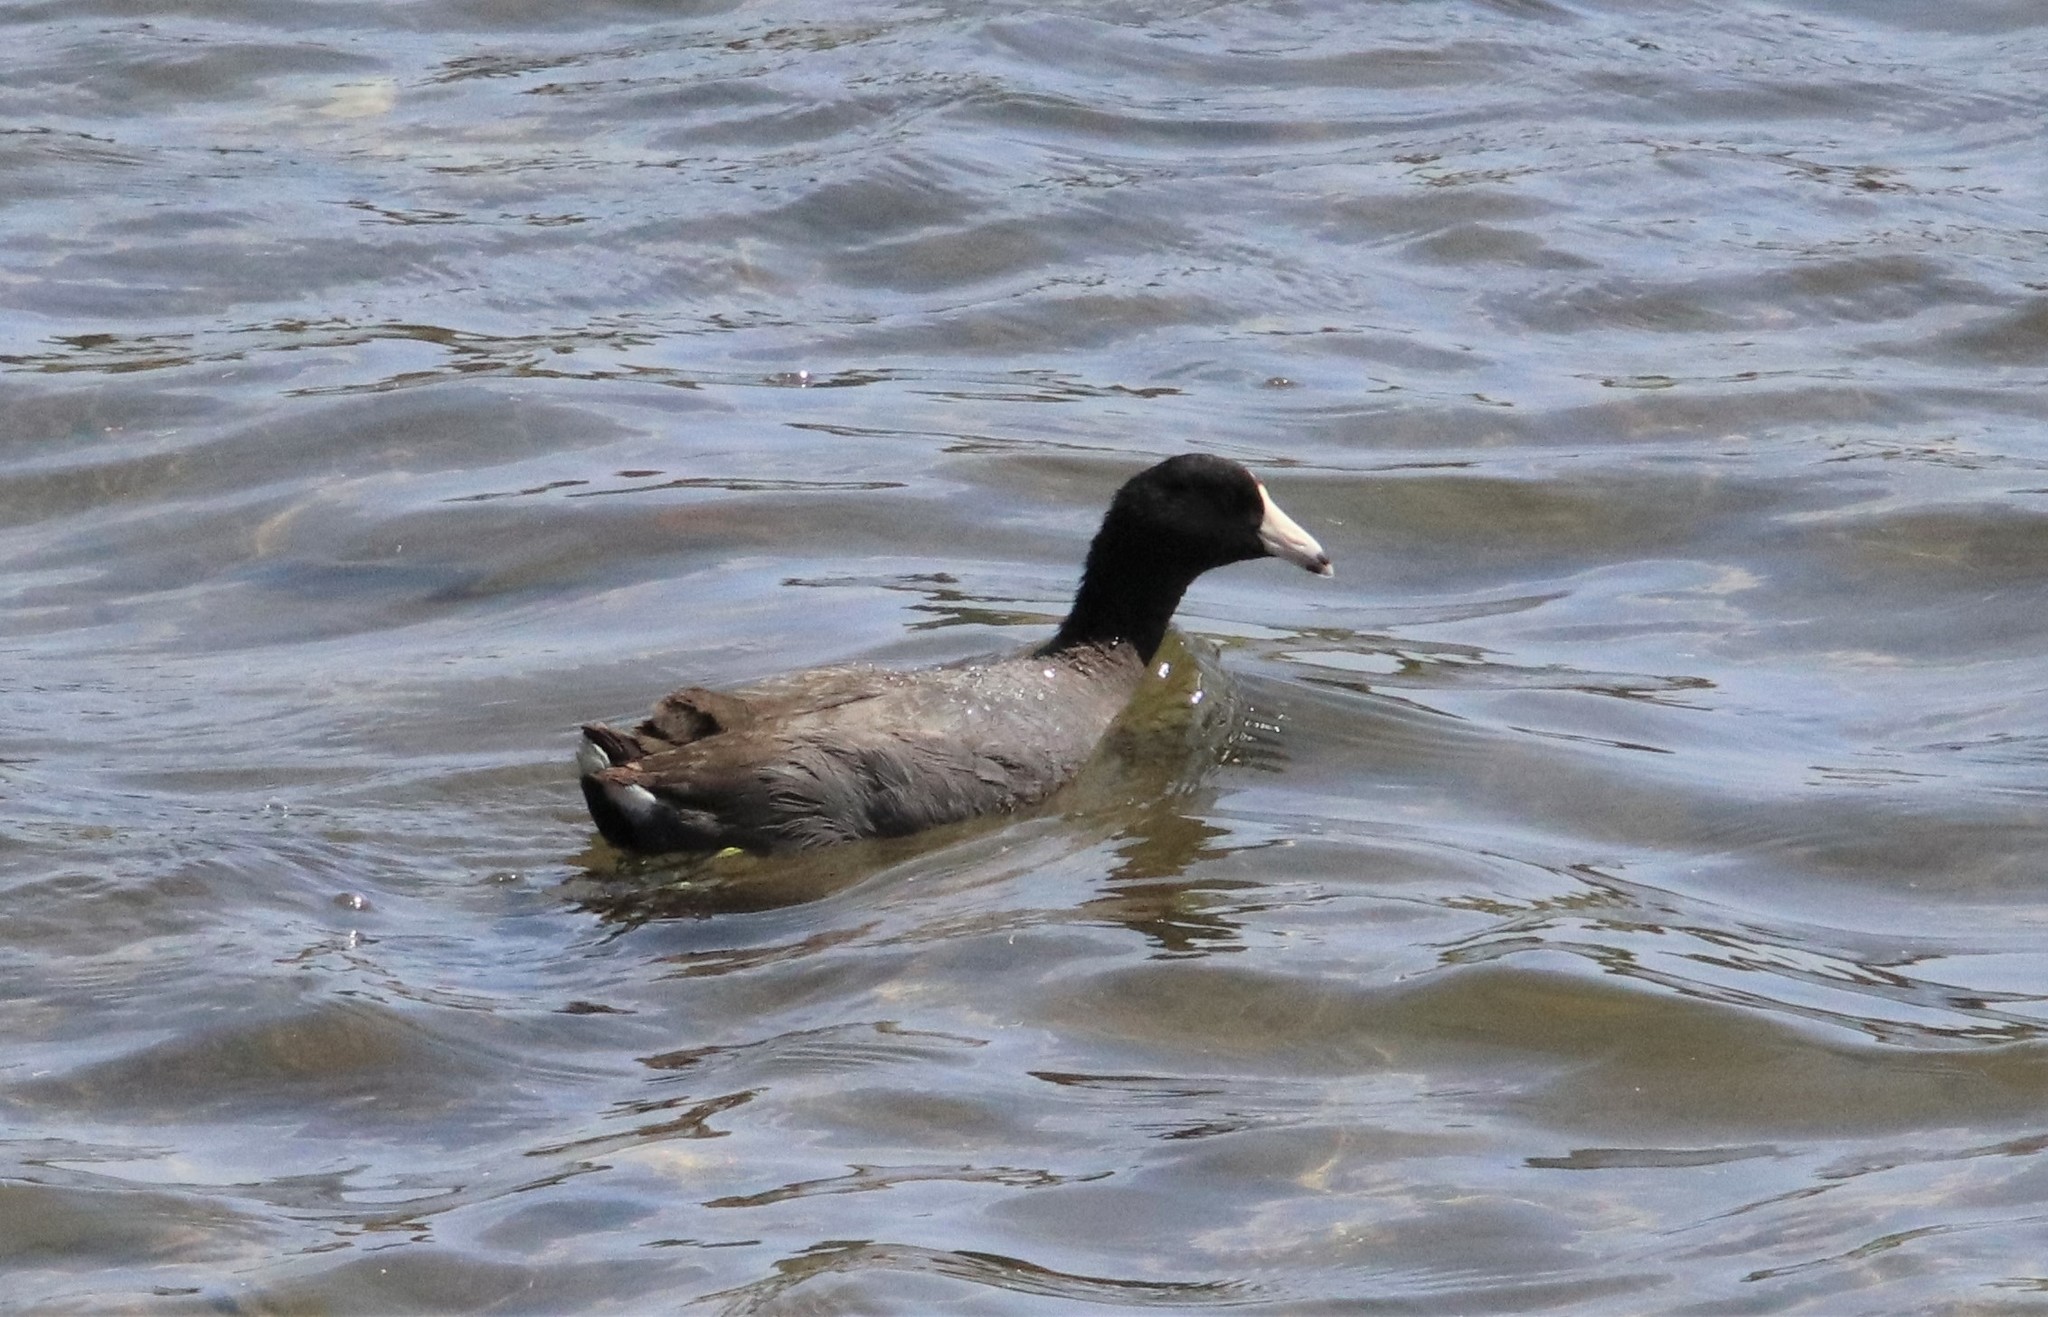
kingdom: Animalia
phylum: Chordata
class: Aves
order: Gruiformes
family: Rallidae
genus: Fulica
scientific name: Fulica americana
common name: American coot
